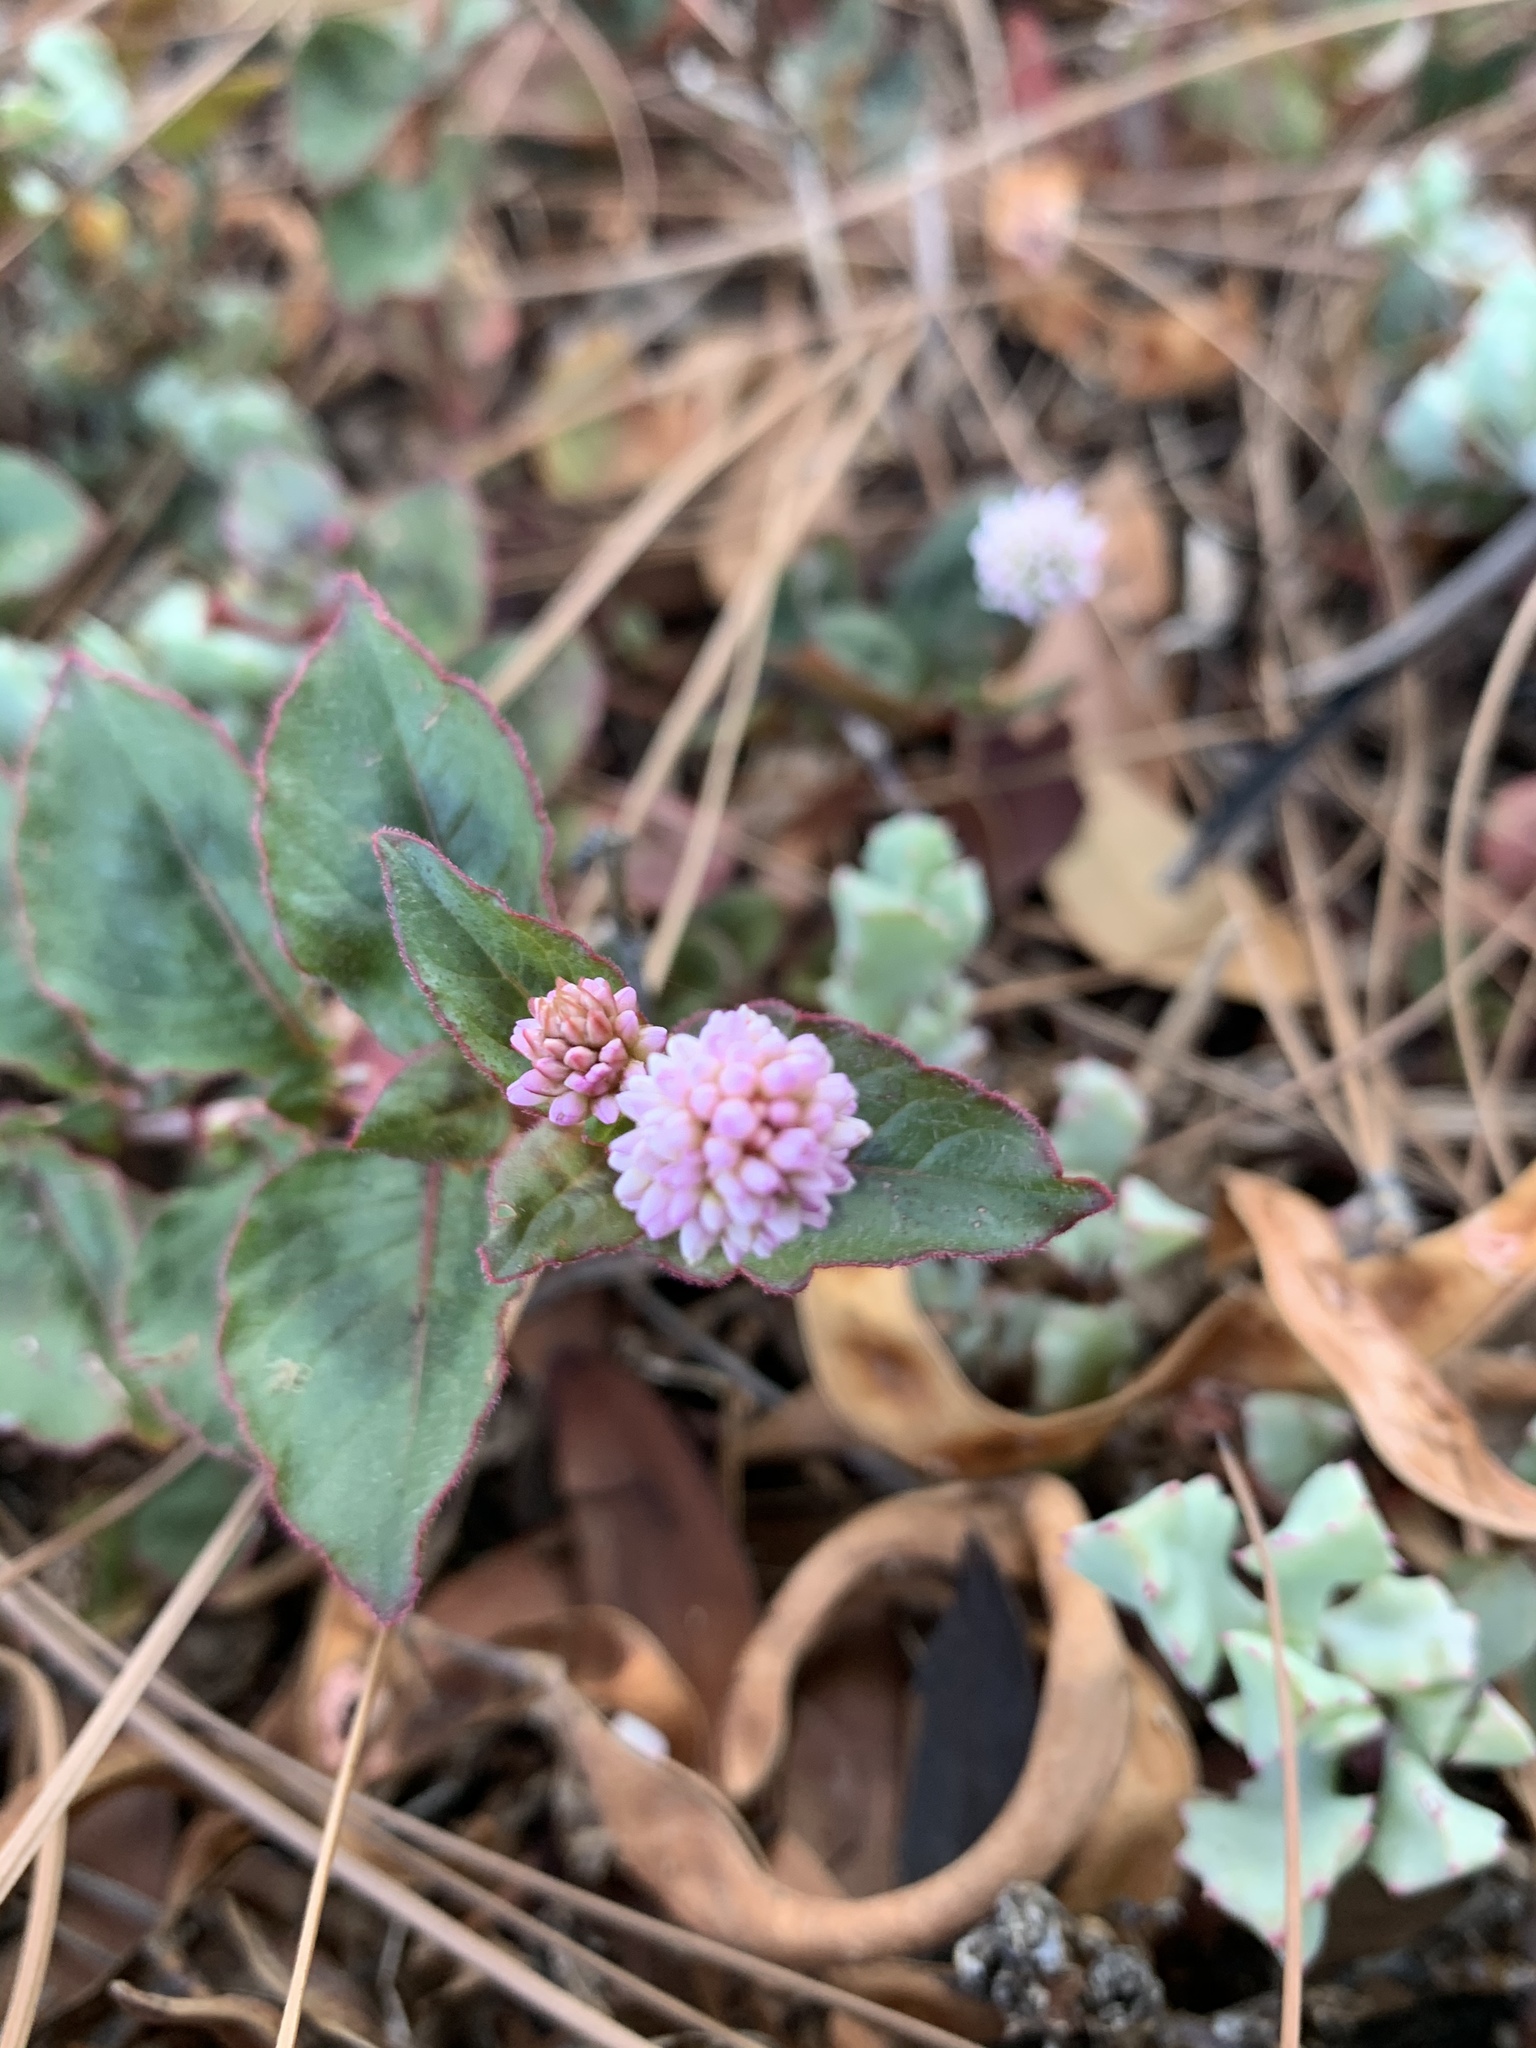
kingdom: Plantae
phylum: Tracheophyta
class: Magnoliopsida
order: Caryophyllales
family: Polygonaceae
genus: Persicaria
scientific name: Persicaria capitata
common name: Pinkhead smartweed
